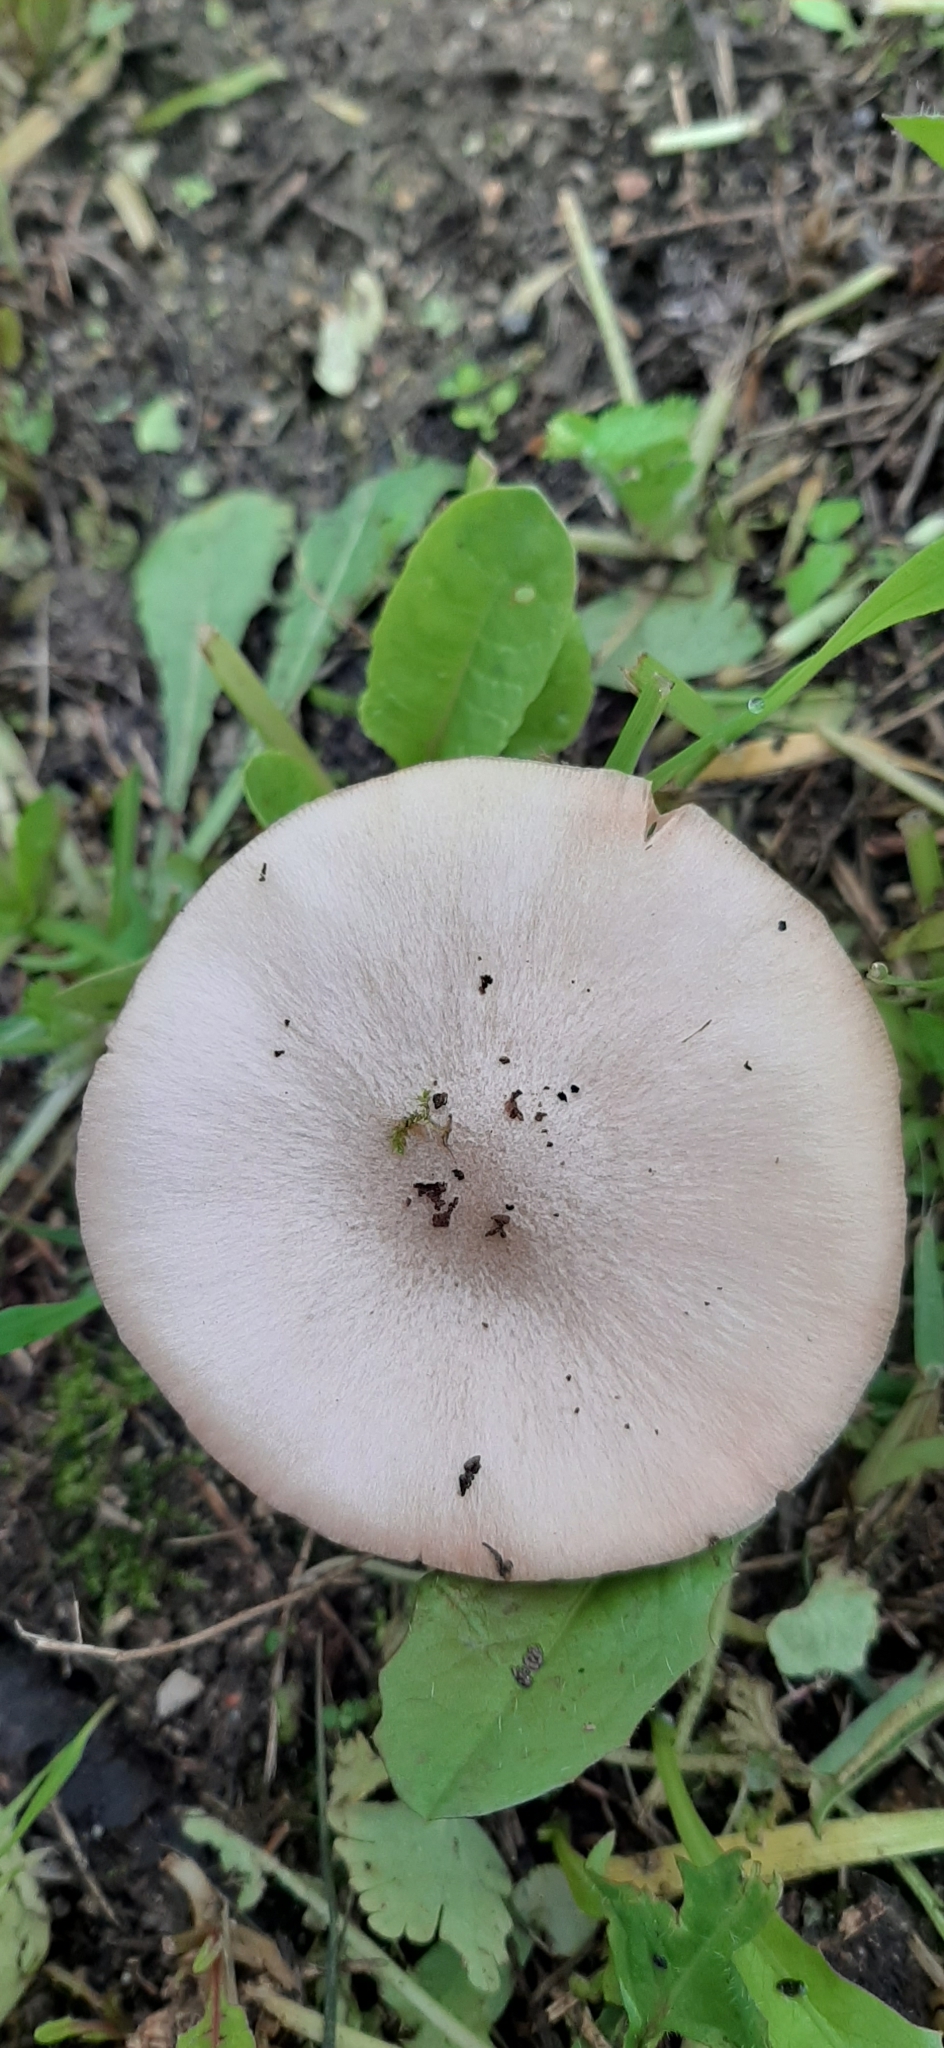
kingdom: Fungi
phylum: Basidiomycota
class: Agaricomycetes
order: Agaricales
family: Pluteaceae
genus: Volvopluteus
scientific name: Volvopluteus gloiocephalus
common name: Stubble rosegill
